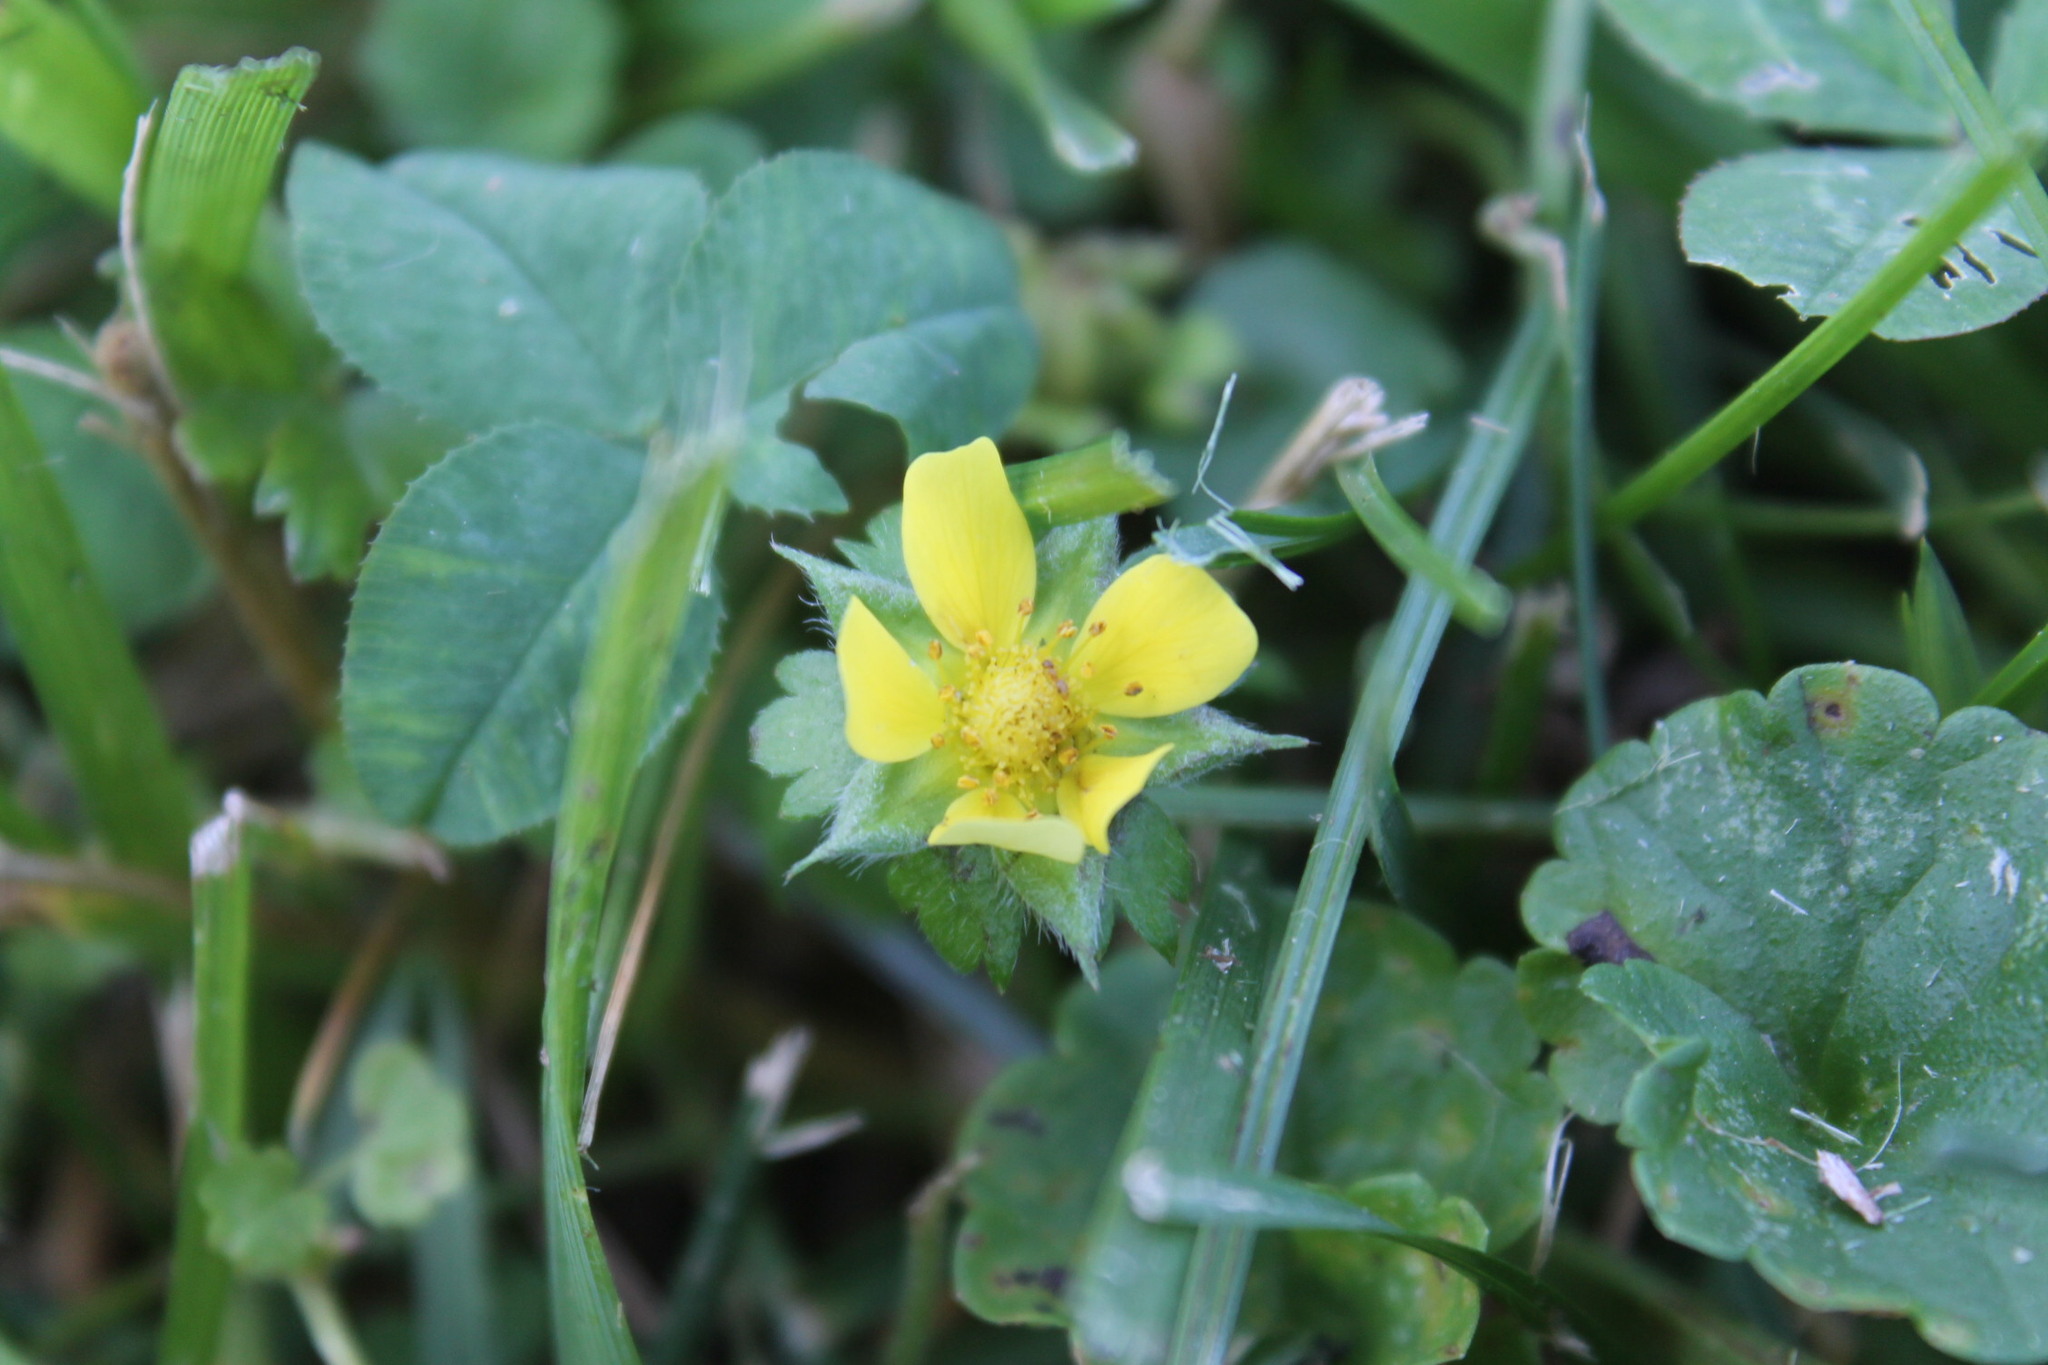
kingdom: Plantae
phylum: Tracheophyta
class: Magnoliopsida
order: Rosales
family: Rosaceae
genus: Potentilla
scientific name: Potentilla indica
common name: Yellow-flowered strawberry
